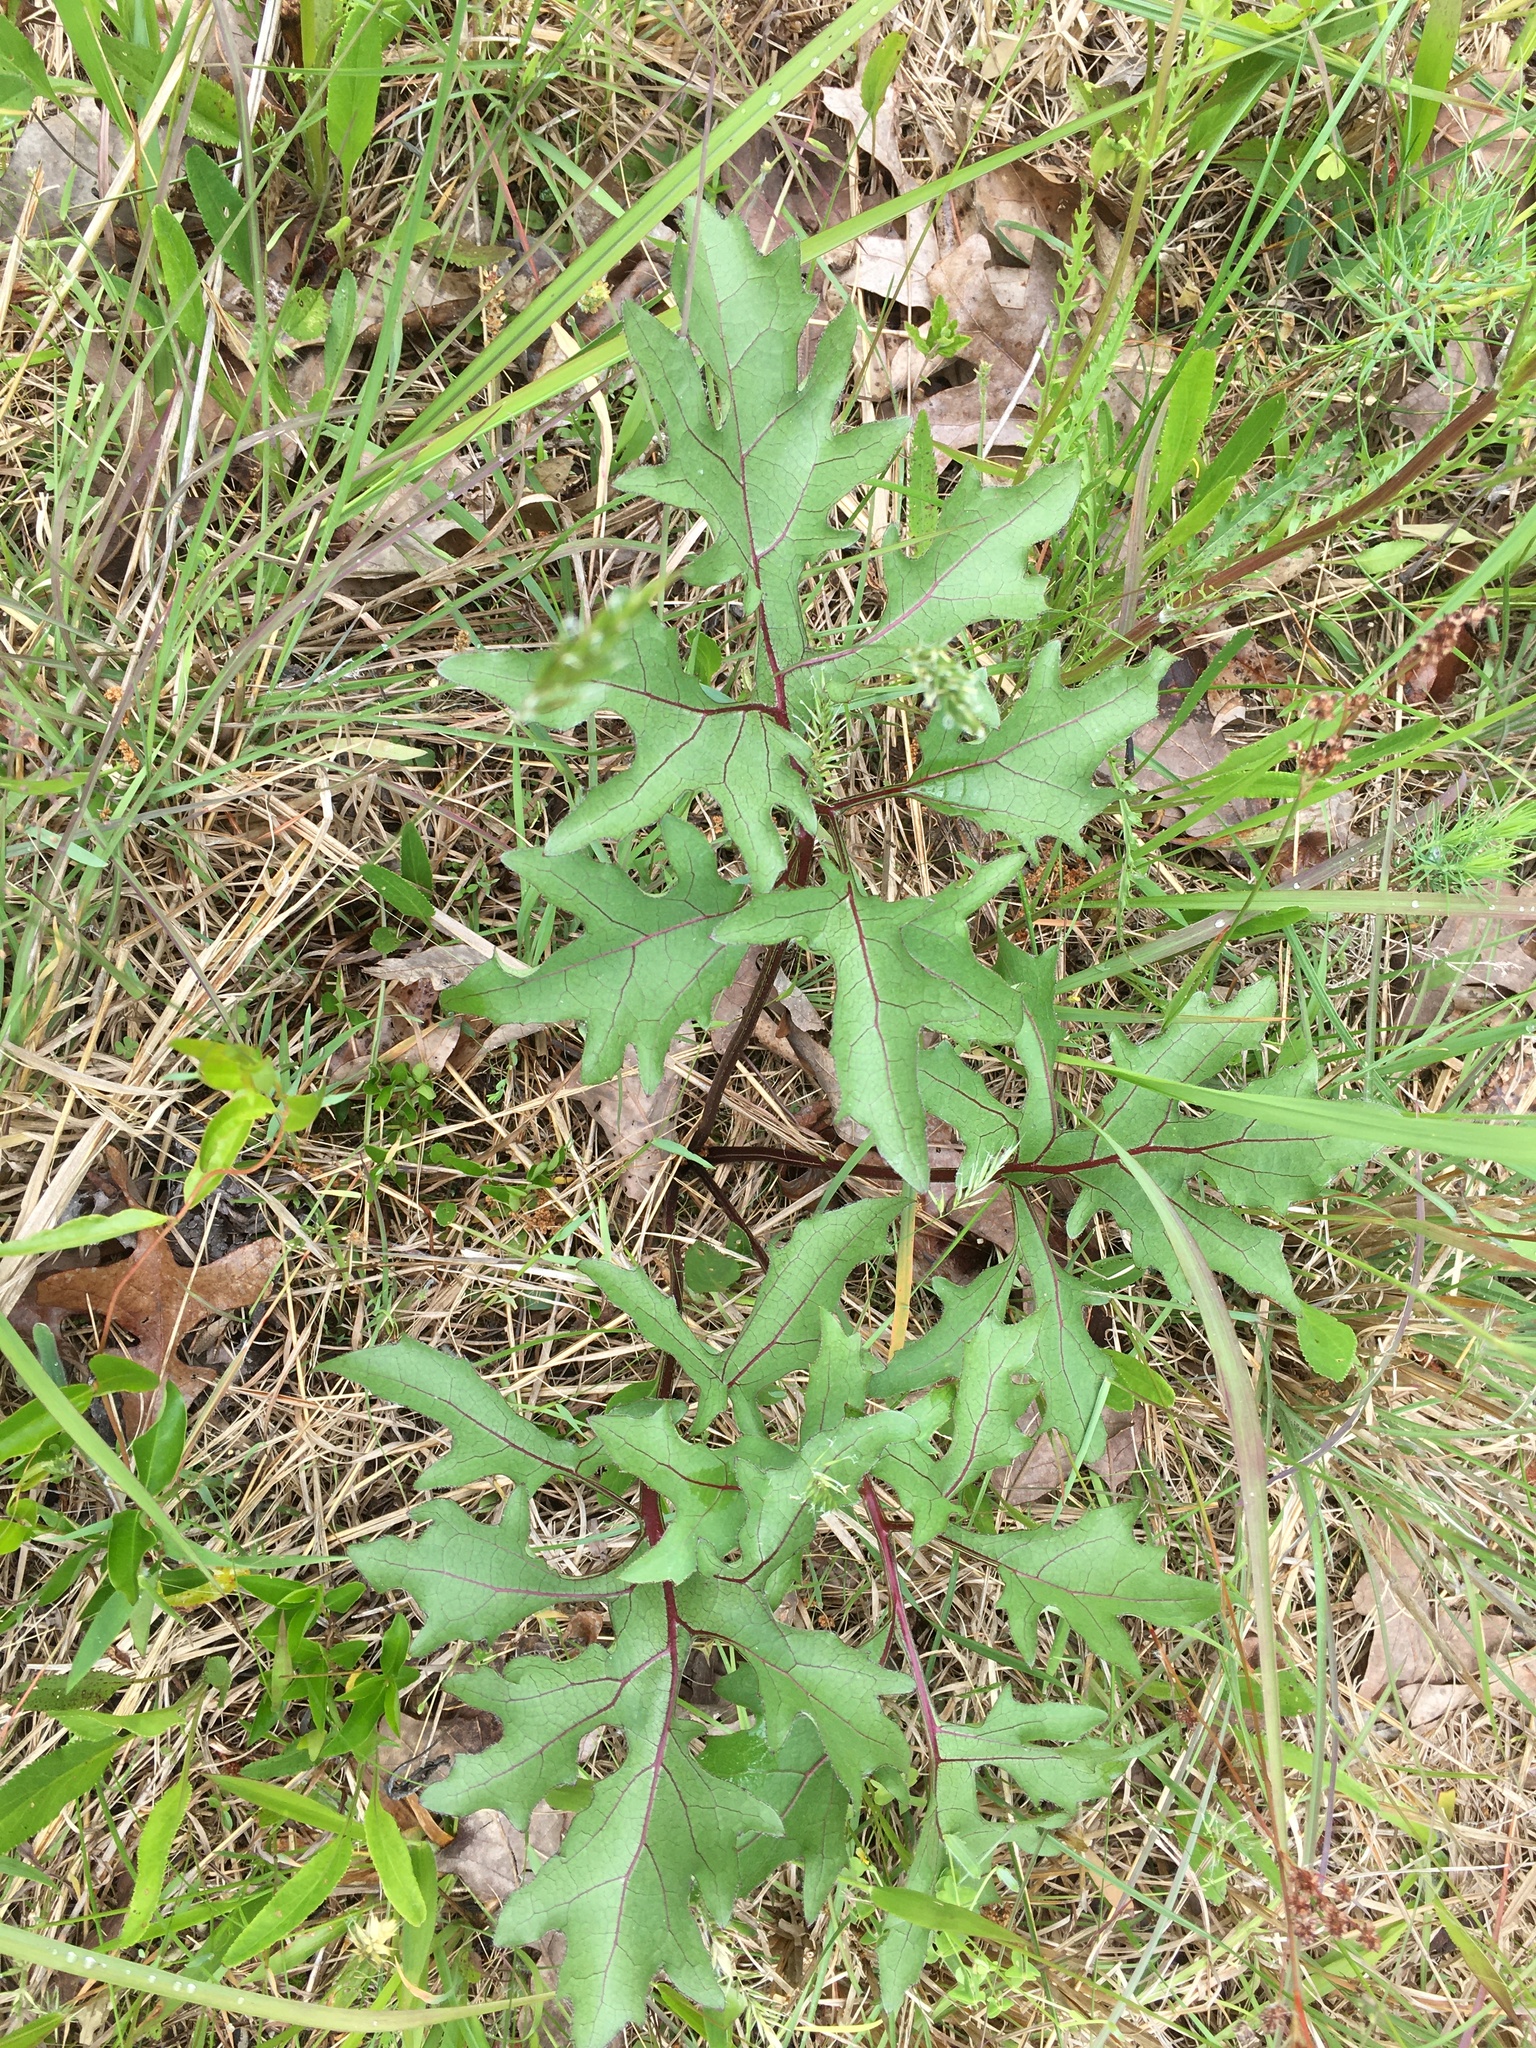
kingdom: Plantae
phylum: Tracheophyta
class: Magnoliopsida
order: Asterales
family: Asteraceae
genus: Silphium
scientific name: Silphium compositum
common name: Lesser basal-leaf rosinweed
